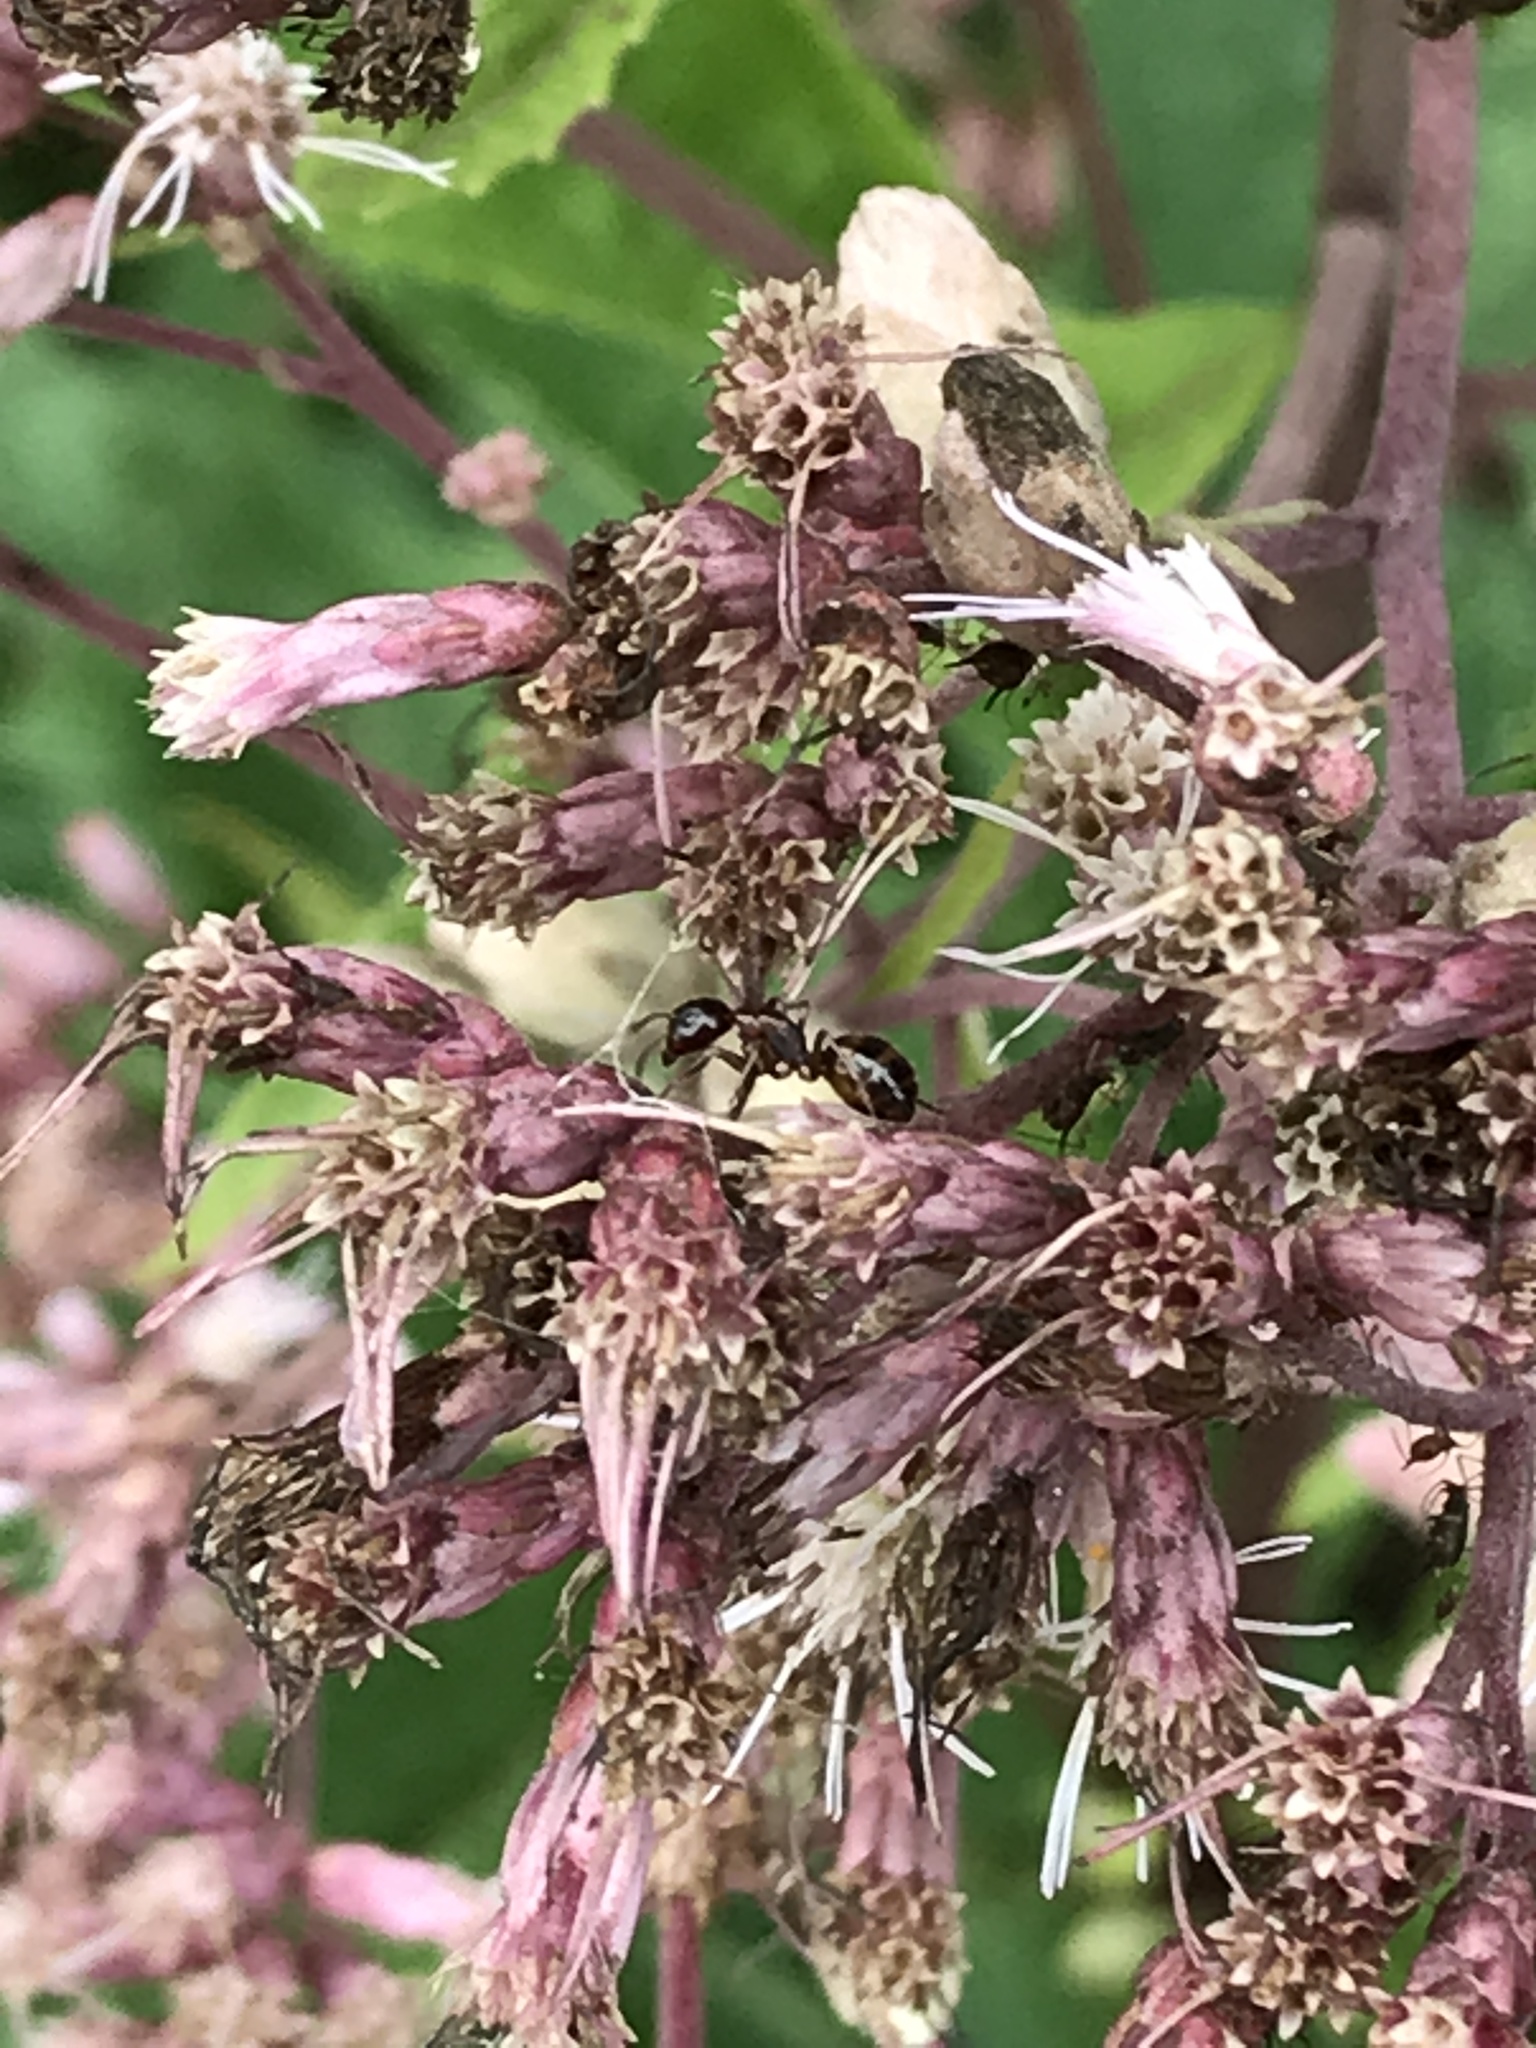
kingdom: Animalia
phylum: Arthropoda
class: Insecta
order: Hymenoptera
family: Formicidae
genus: Camponotus
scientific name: Camponotus subbarbatus
